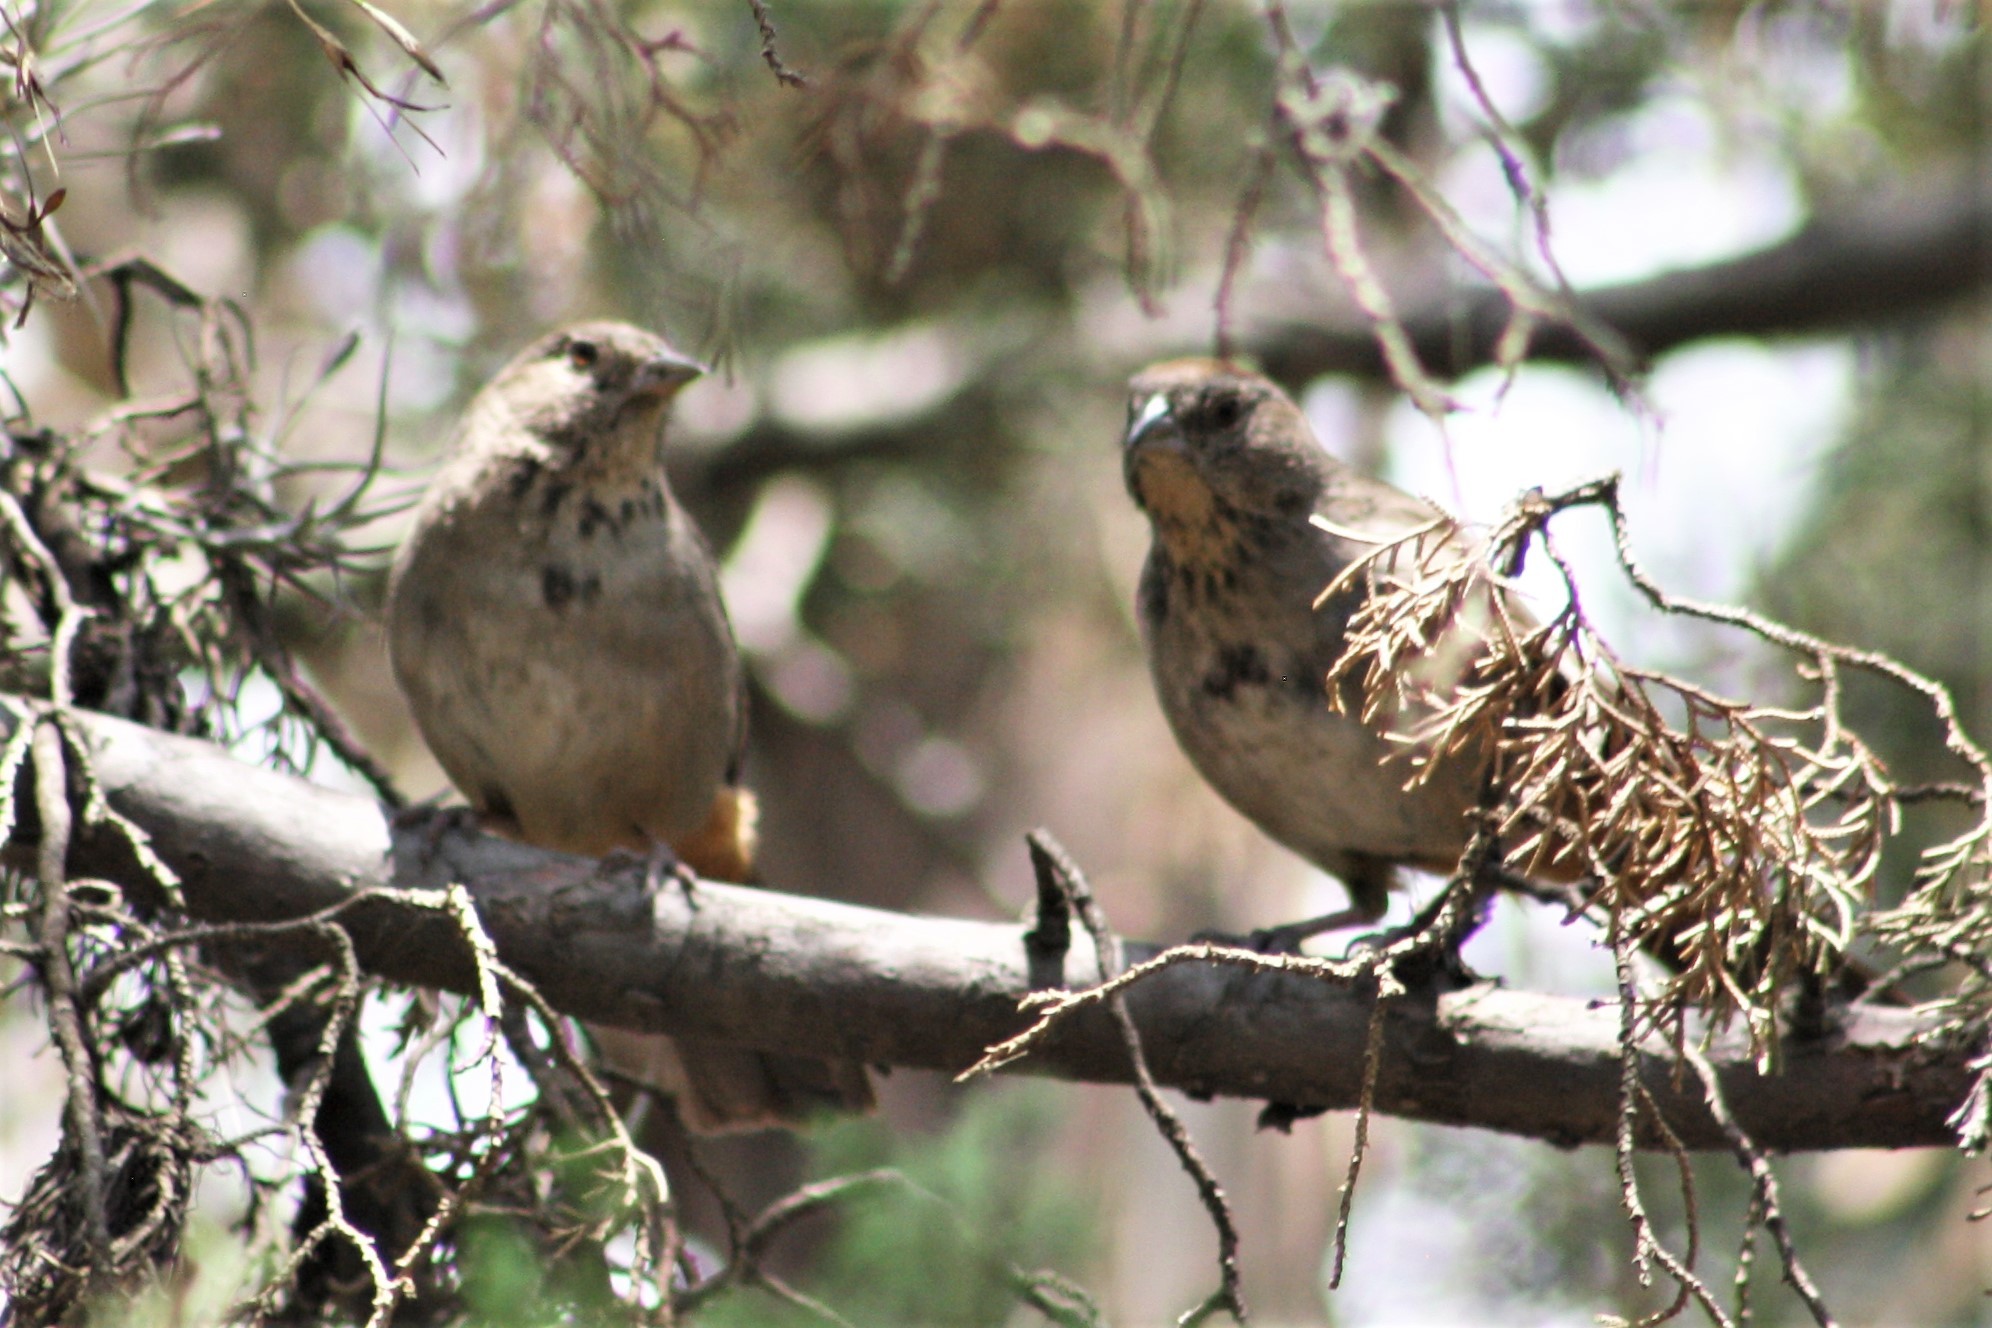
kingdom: Animalia
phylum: Chordata
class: Aves
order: Passeriformes
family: Passerellidae
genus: Melozone
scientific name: Melozone fusca
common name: Canyon towhee
